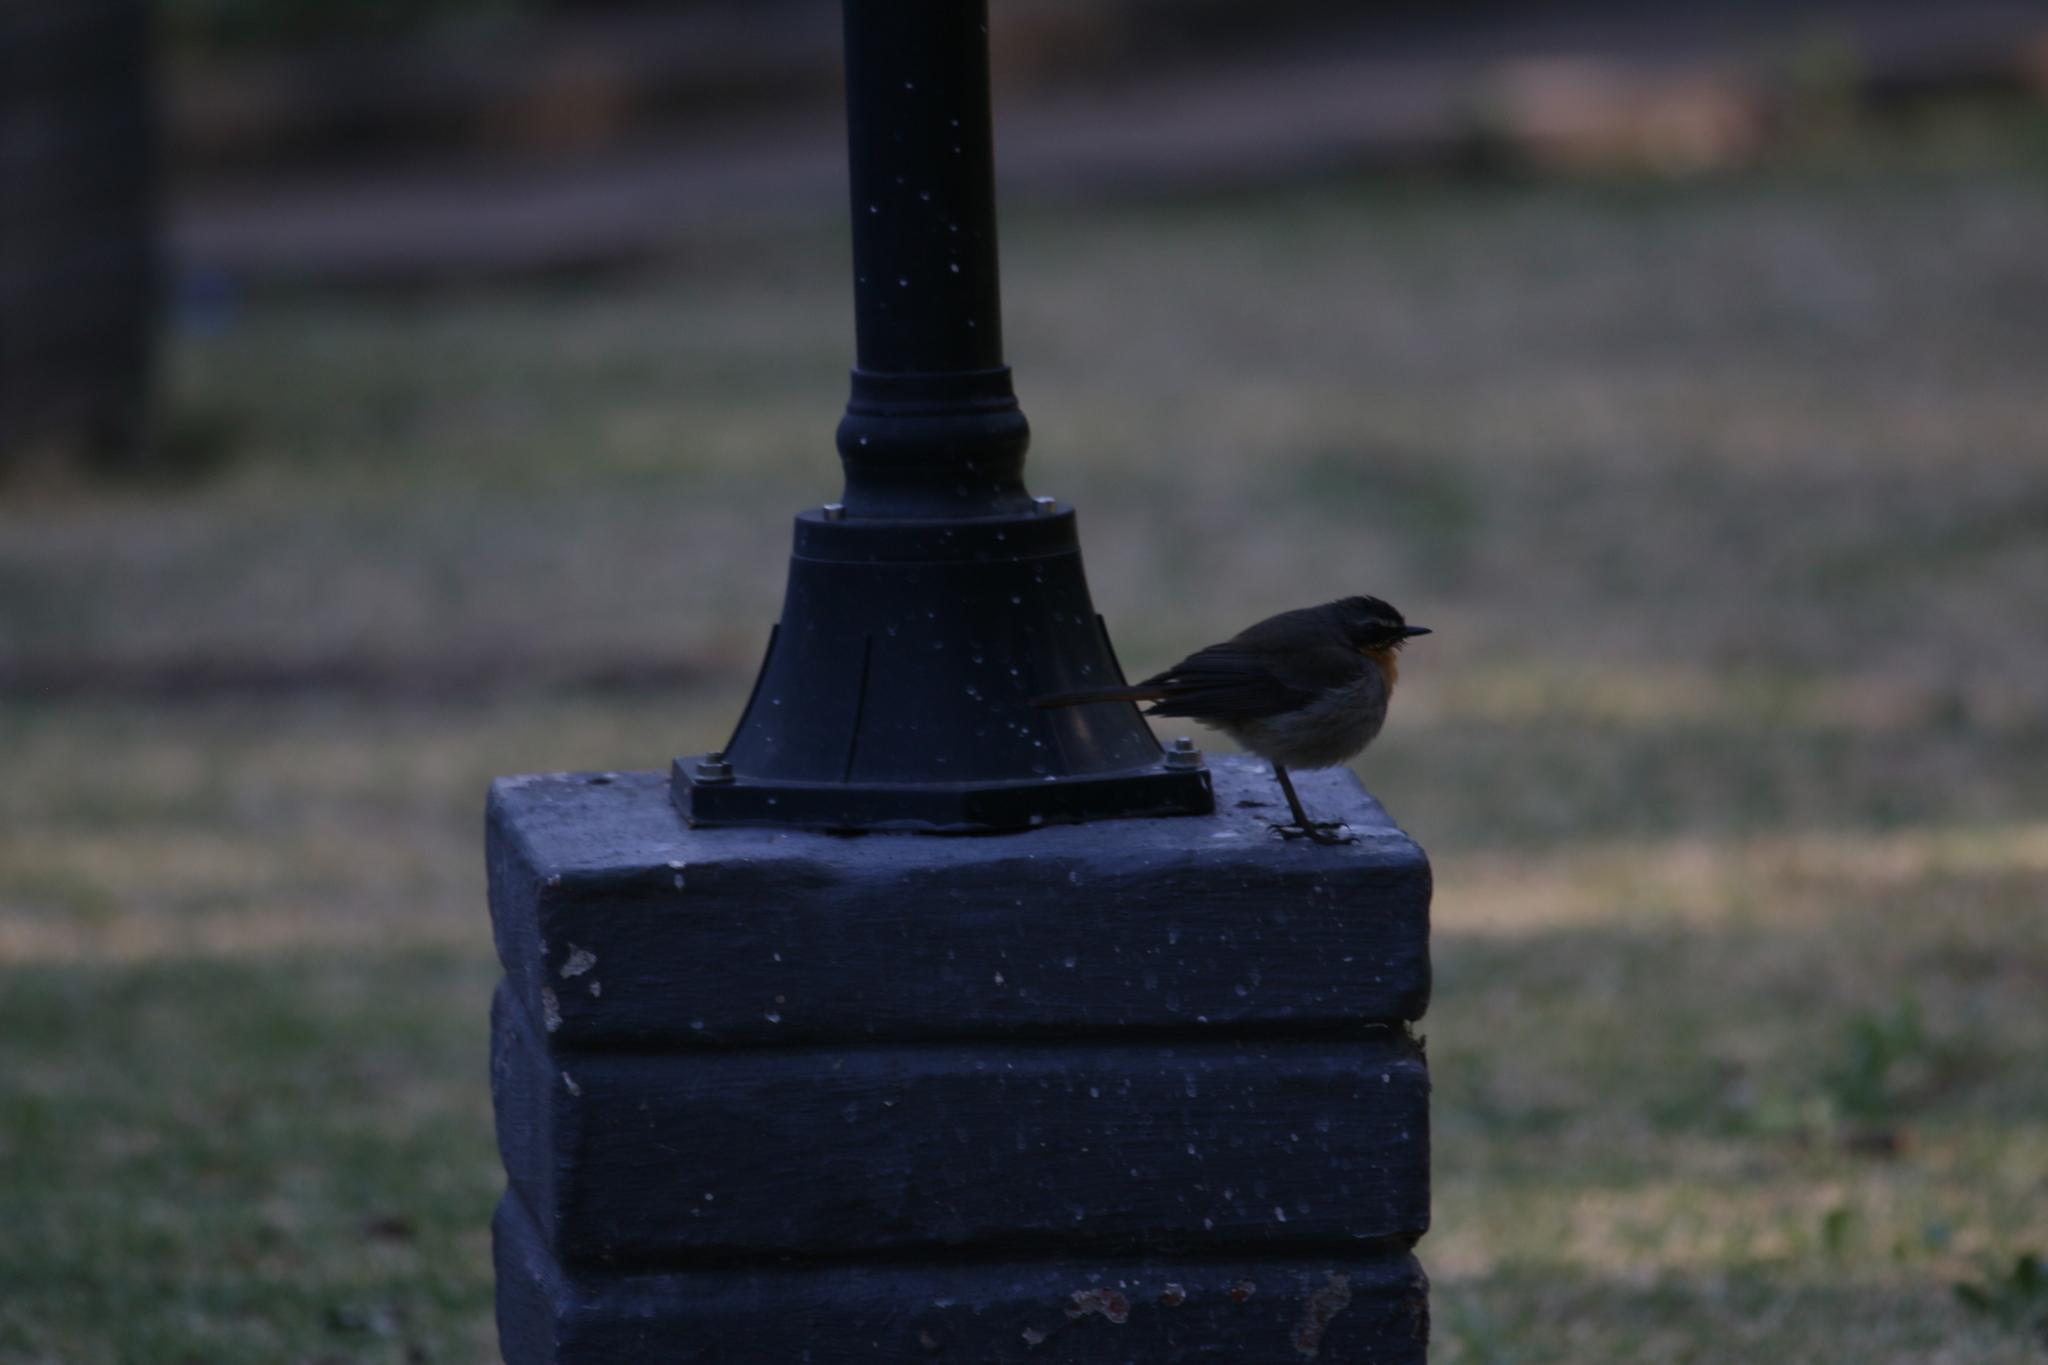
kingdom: Animalia
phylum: Chordata
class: Aves
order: Passeriformes
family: Muscicapidae
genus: Cossypha
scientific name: Cossypha caffra
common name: Cape robin-chat
